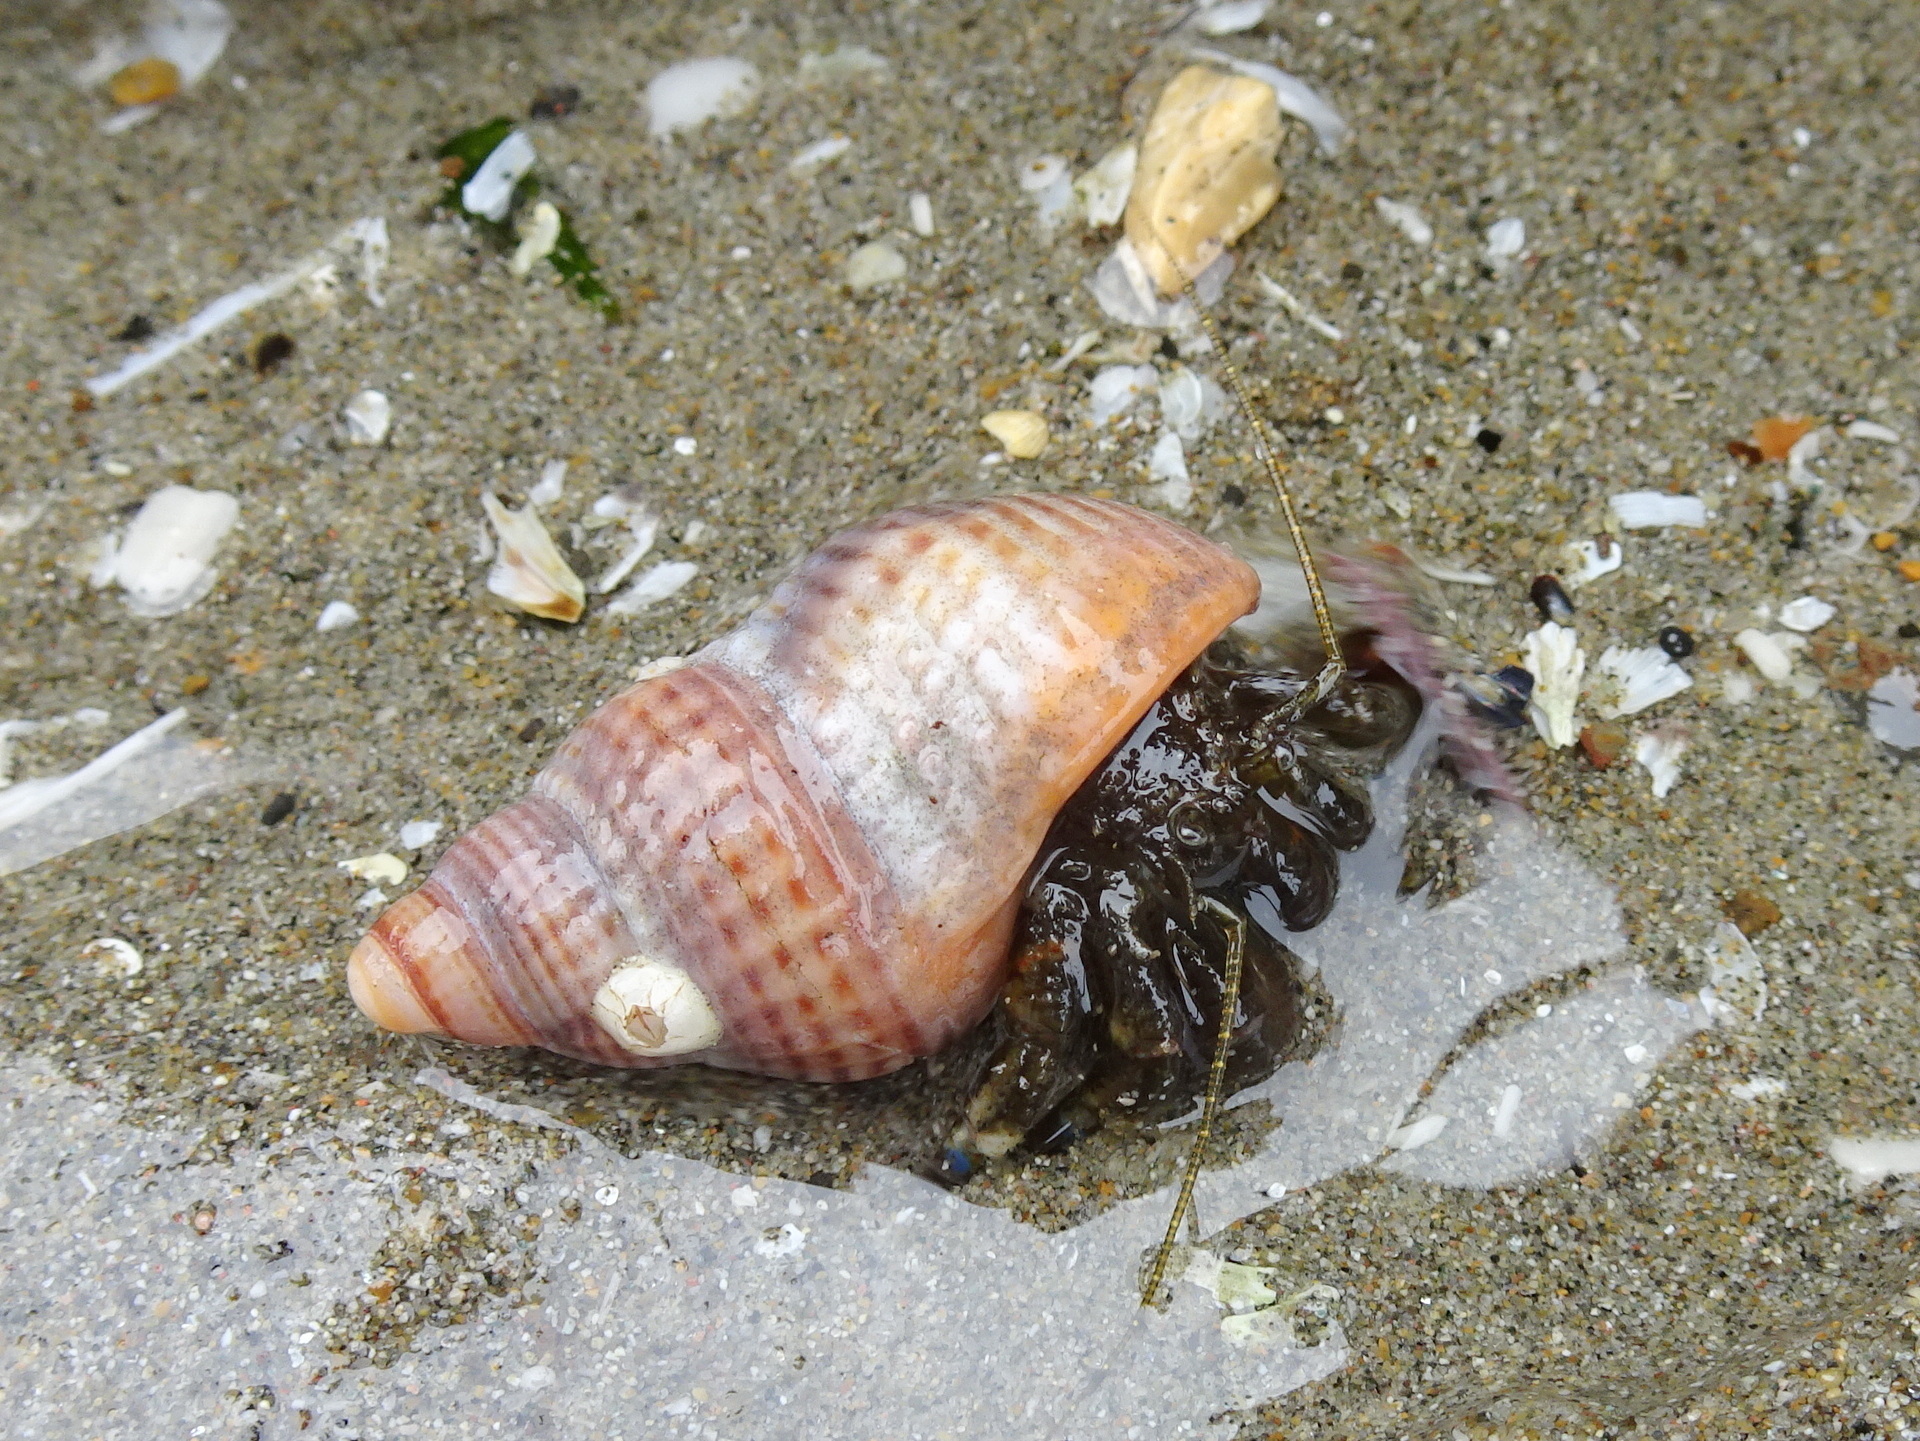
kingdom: Animalia
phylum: Arthropoda
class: Malacostraca
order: Decapoda
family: Paguridae
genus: Pagurus
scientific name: Pagurus hirsutiusculus
